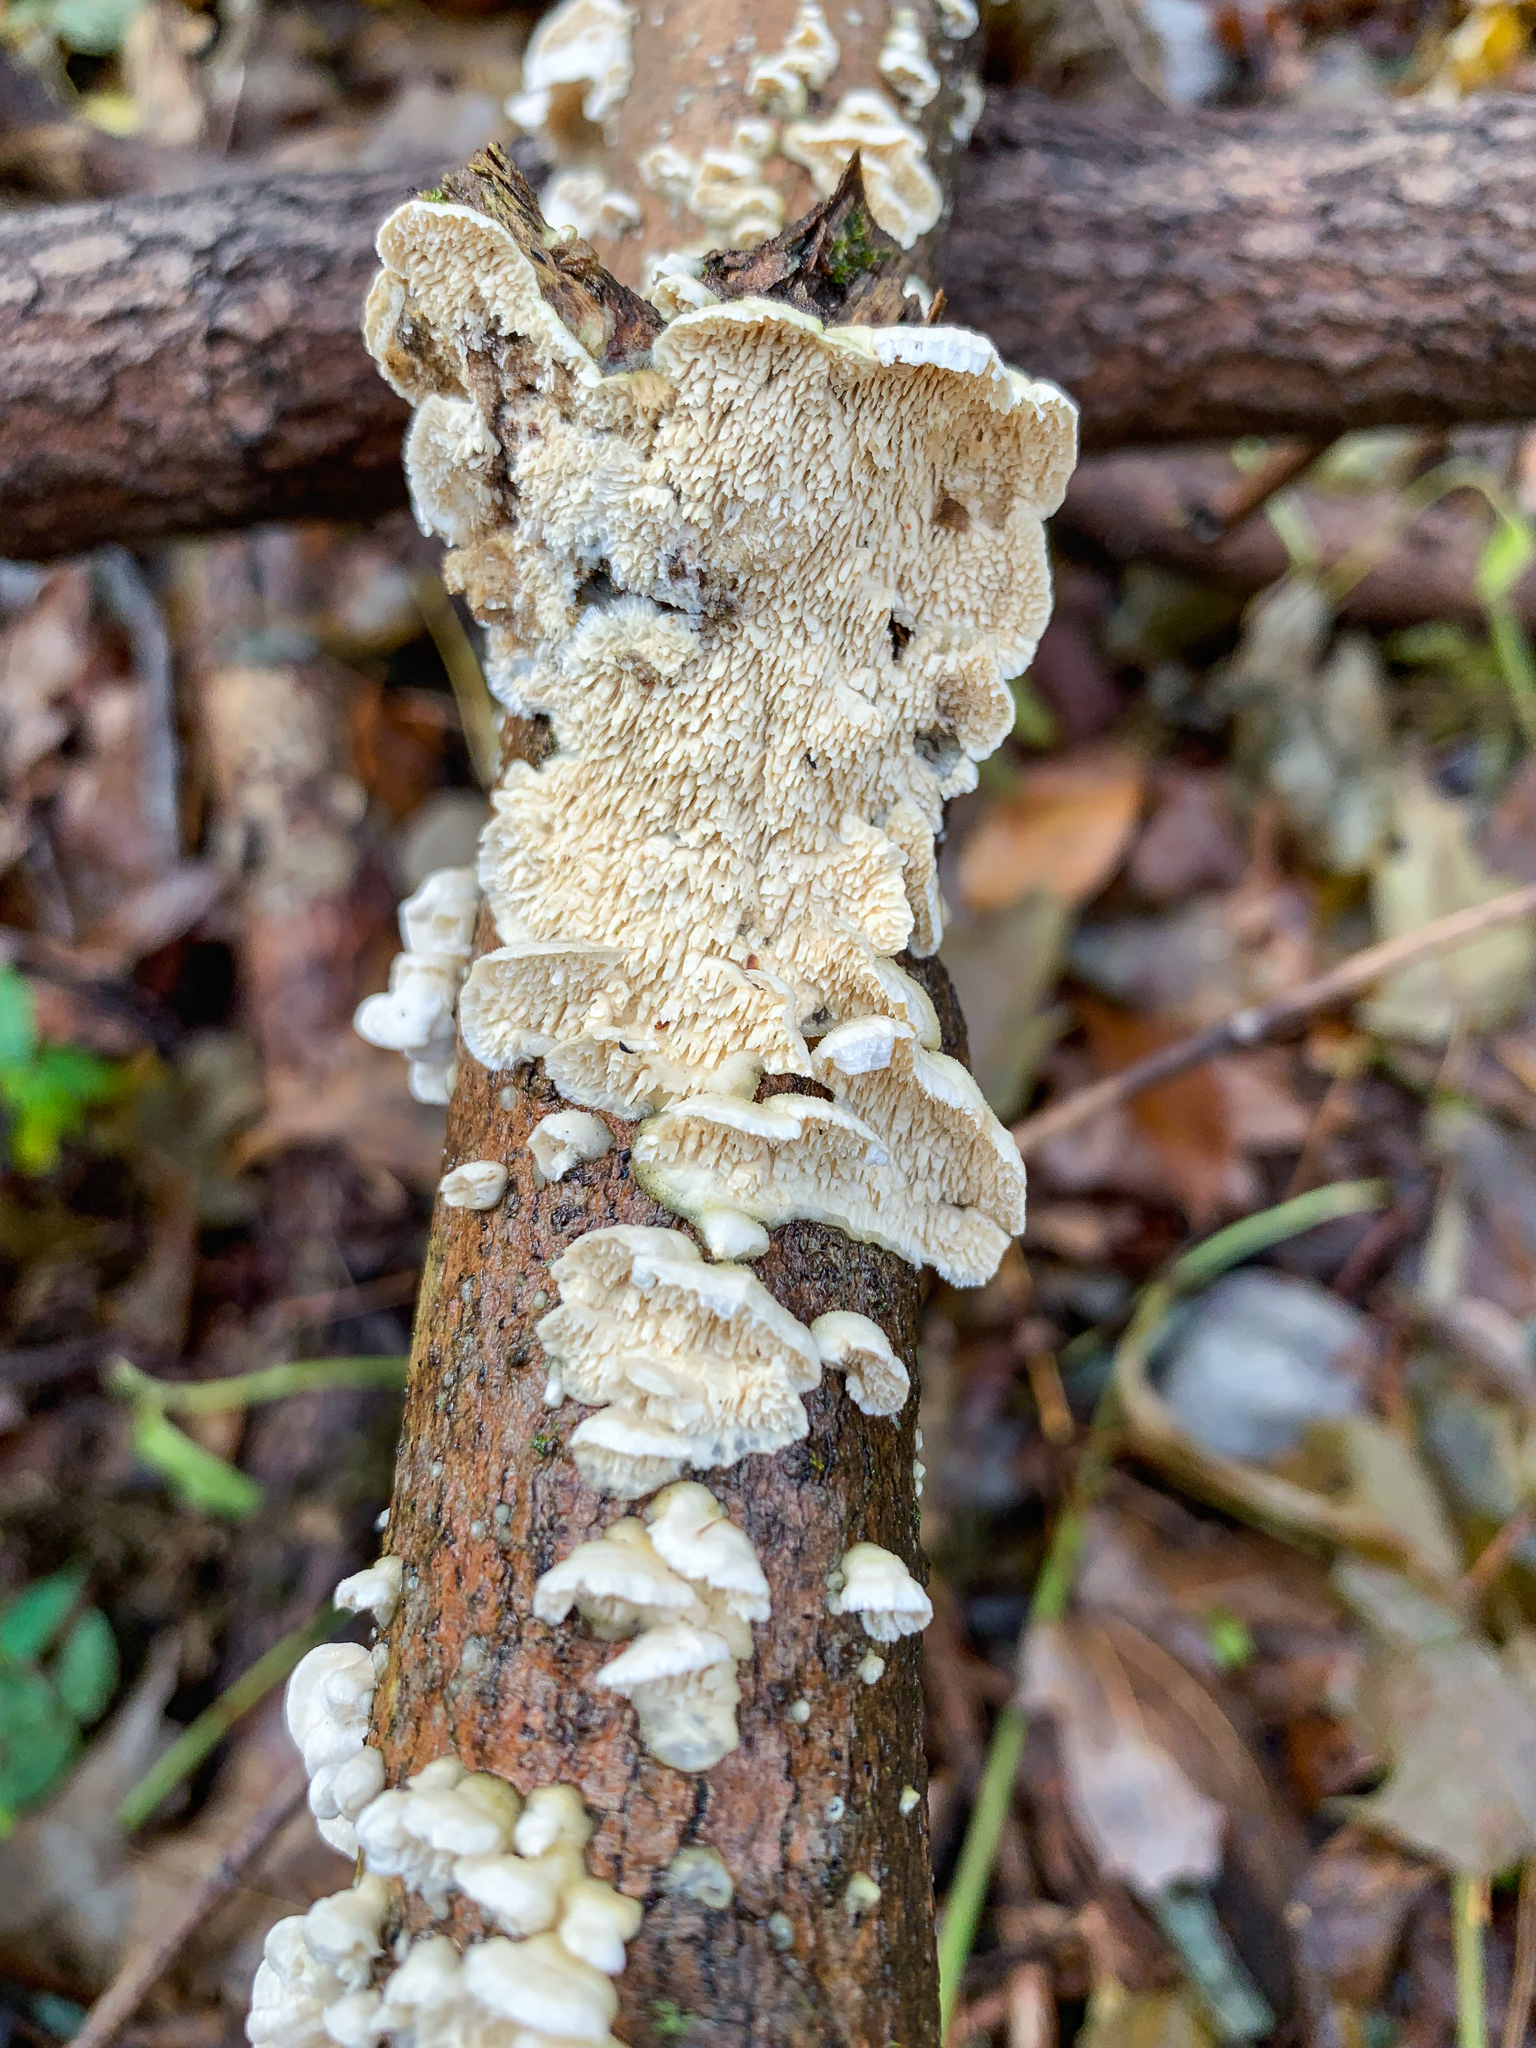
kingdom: Fungi
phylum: Basidiomycota
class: Agaricomycetes
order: Polyporales
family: Irpicaceae
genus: Irpex
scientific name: Irpex lacteus
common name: Milk-white toothed polypore
